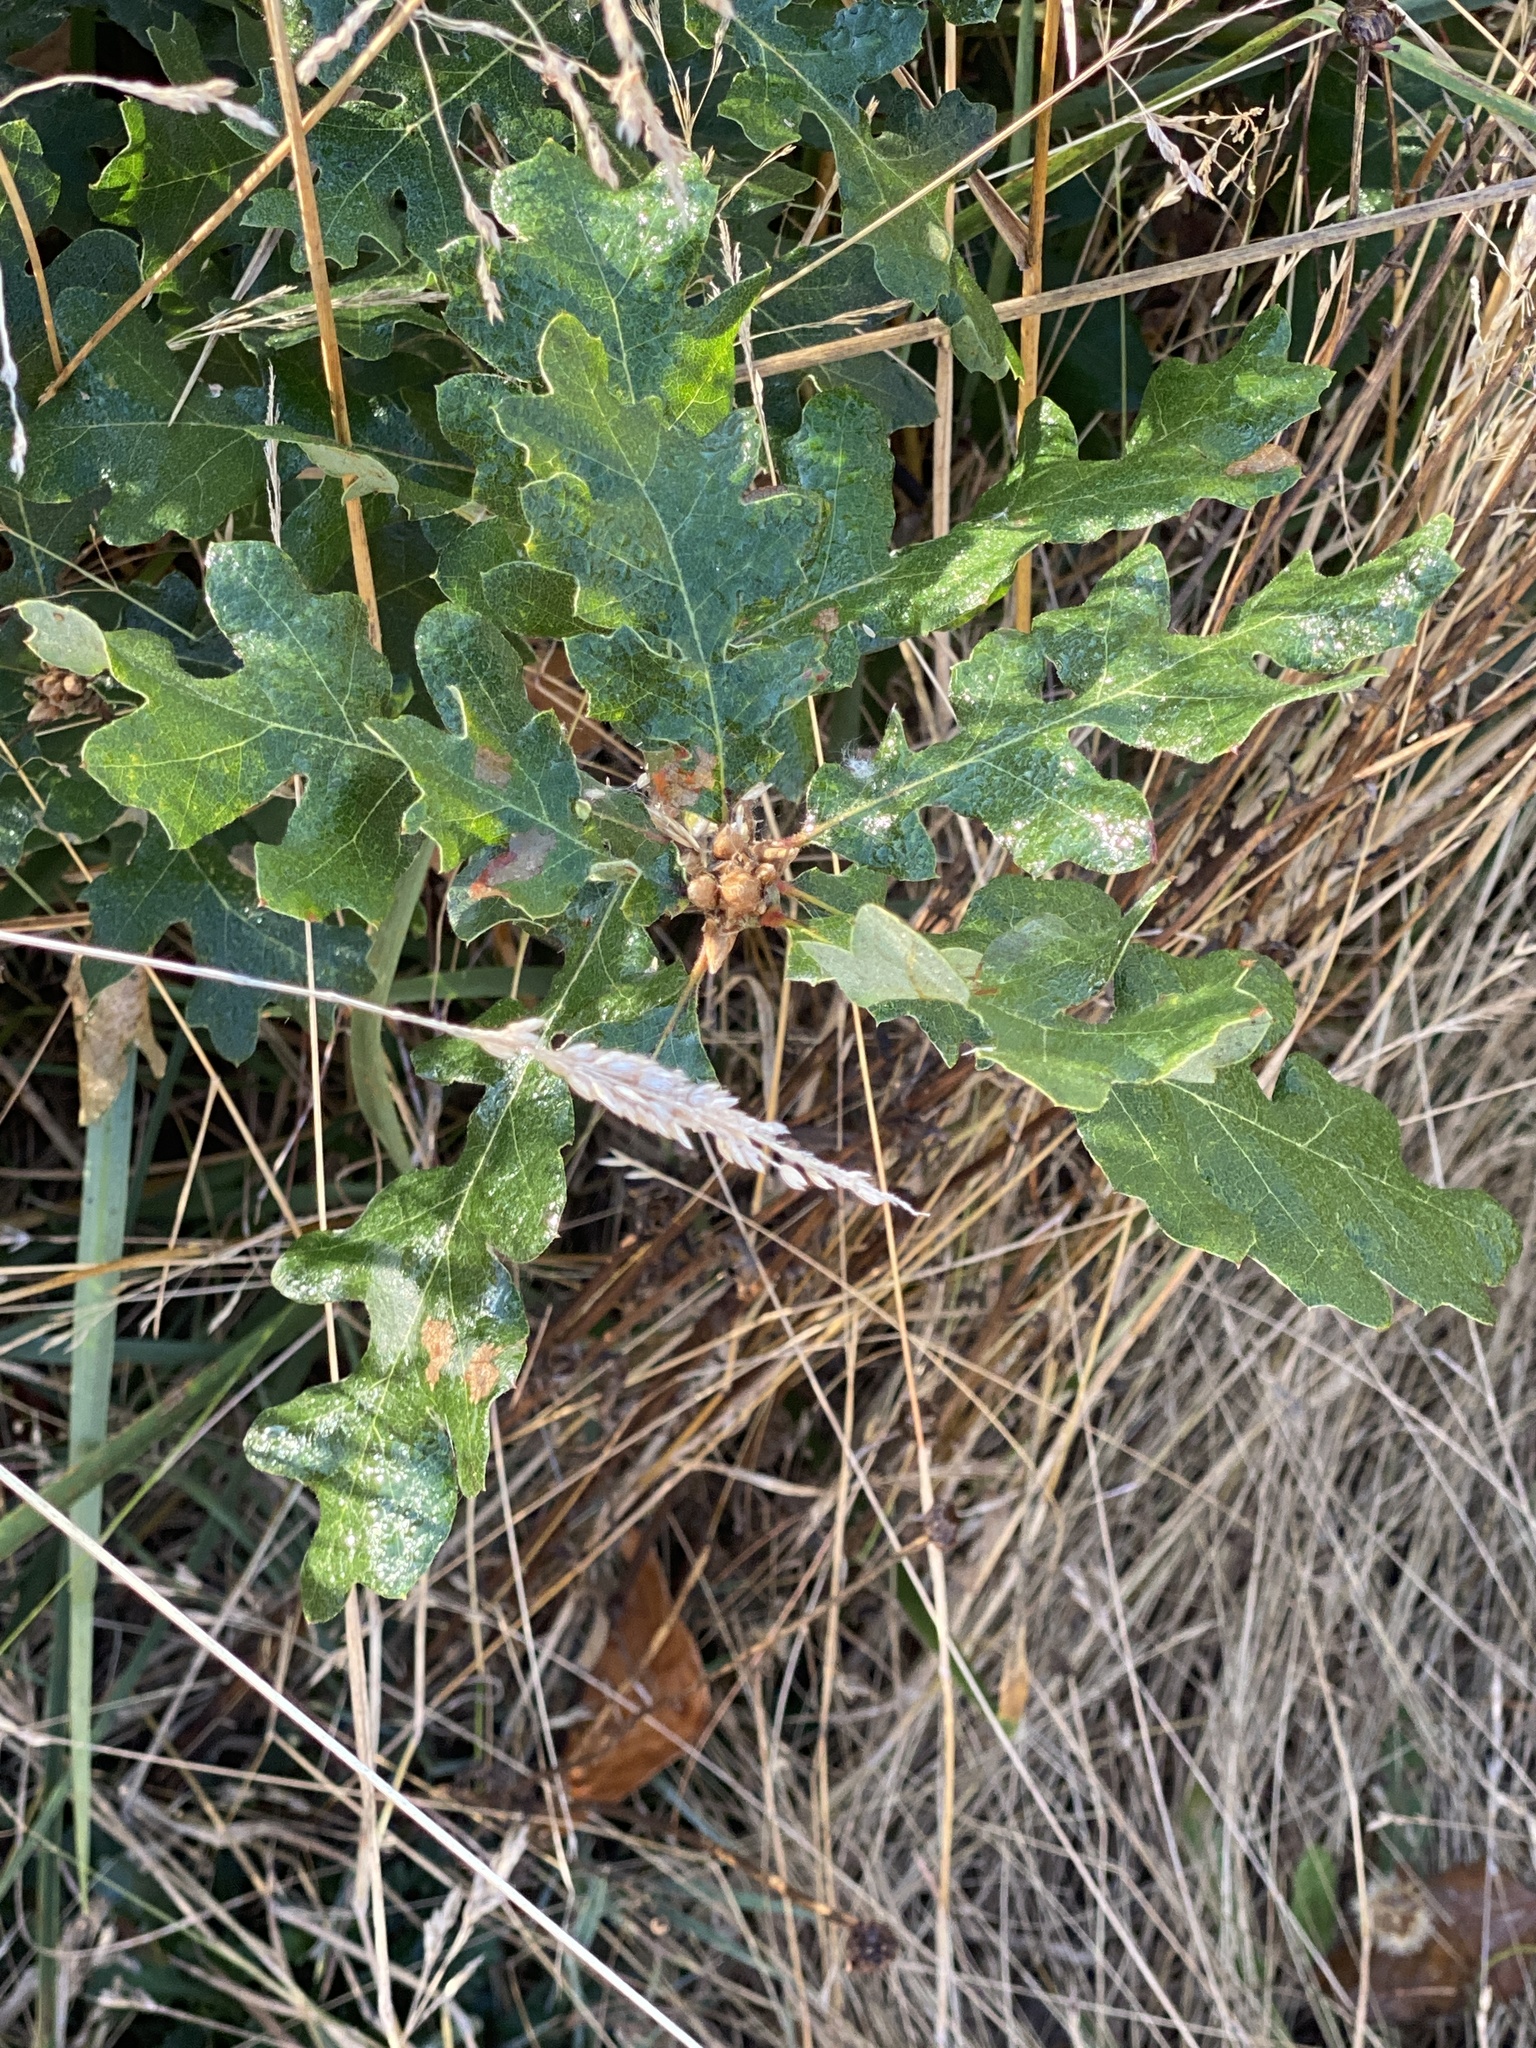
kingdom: Plantae
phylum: Tracheophyta
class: Magnoliopsida
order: Fagales
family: Fagaceae
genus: Quercus
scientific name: Quercus garryana
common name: Garry oak
